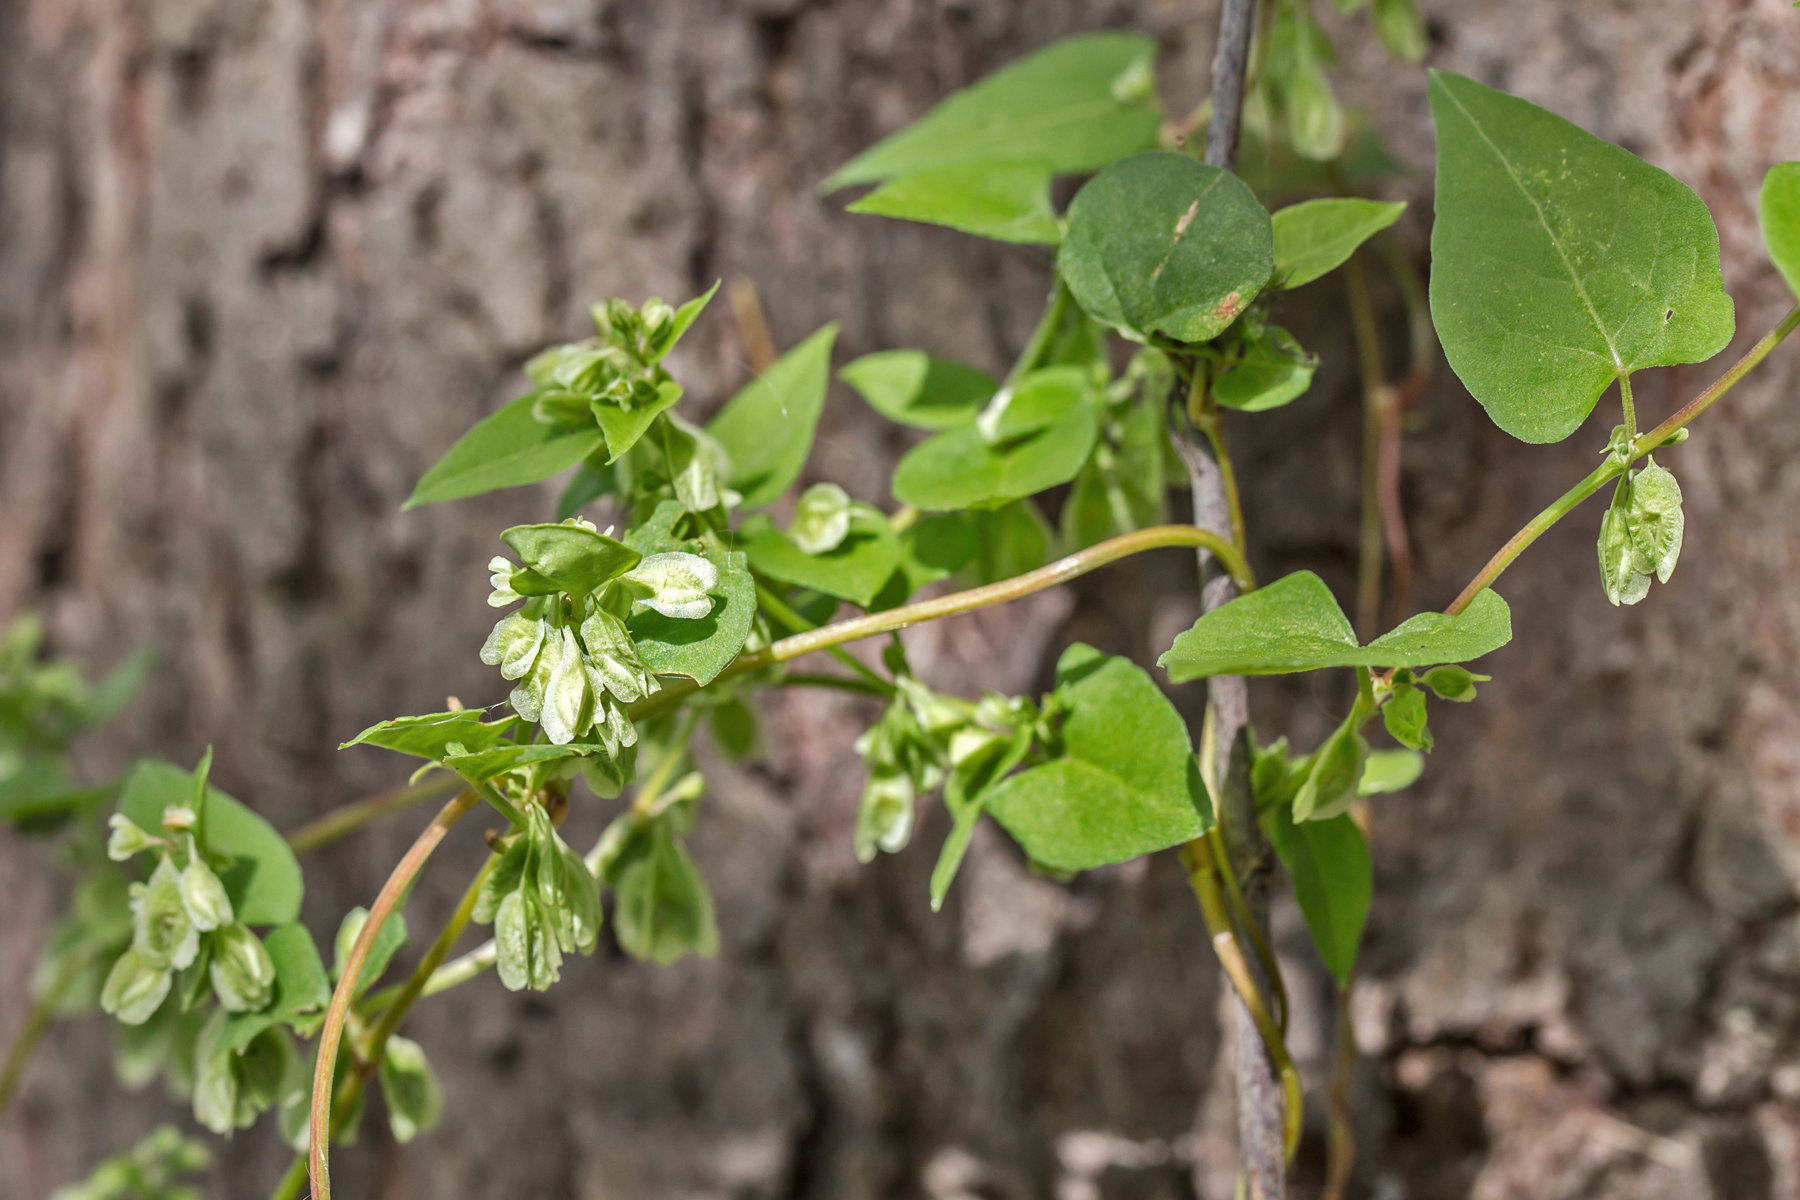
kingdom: Plantae
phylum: Tracheophyta
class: Magnoliopsida
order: Caryophyllales
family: Polygonaceae
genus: Fallopia
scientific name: Fallopia scandens
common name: Climbing false buckwheat
